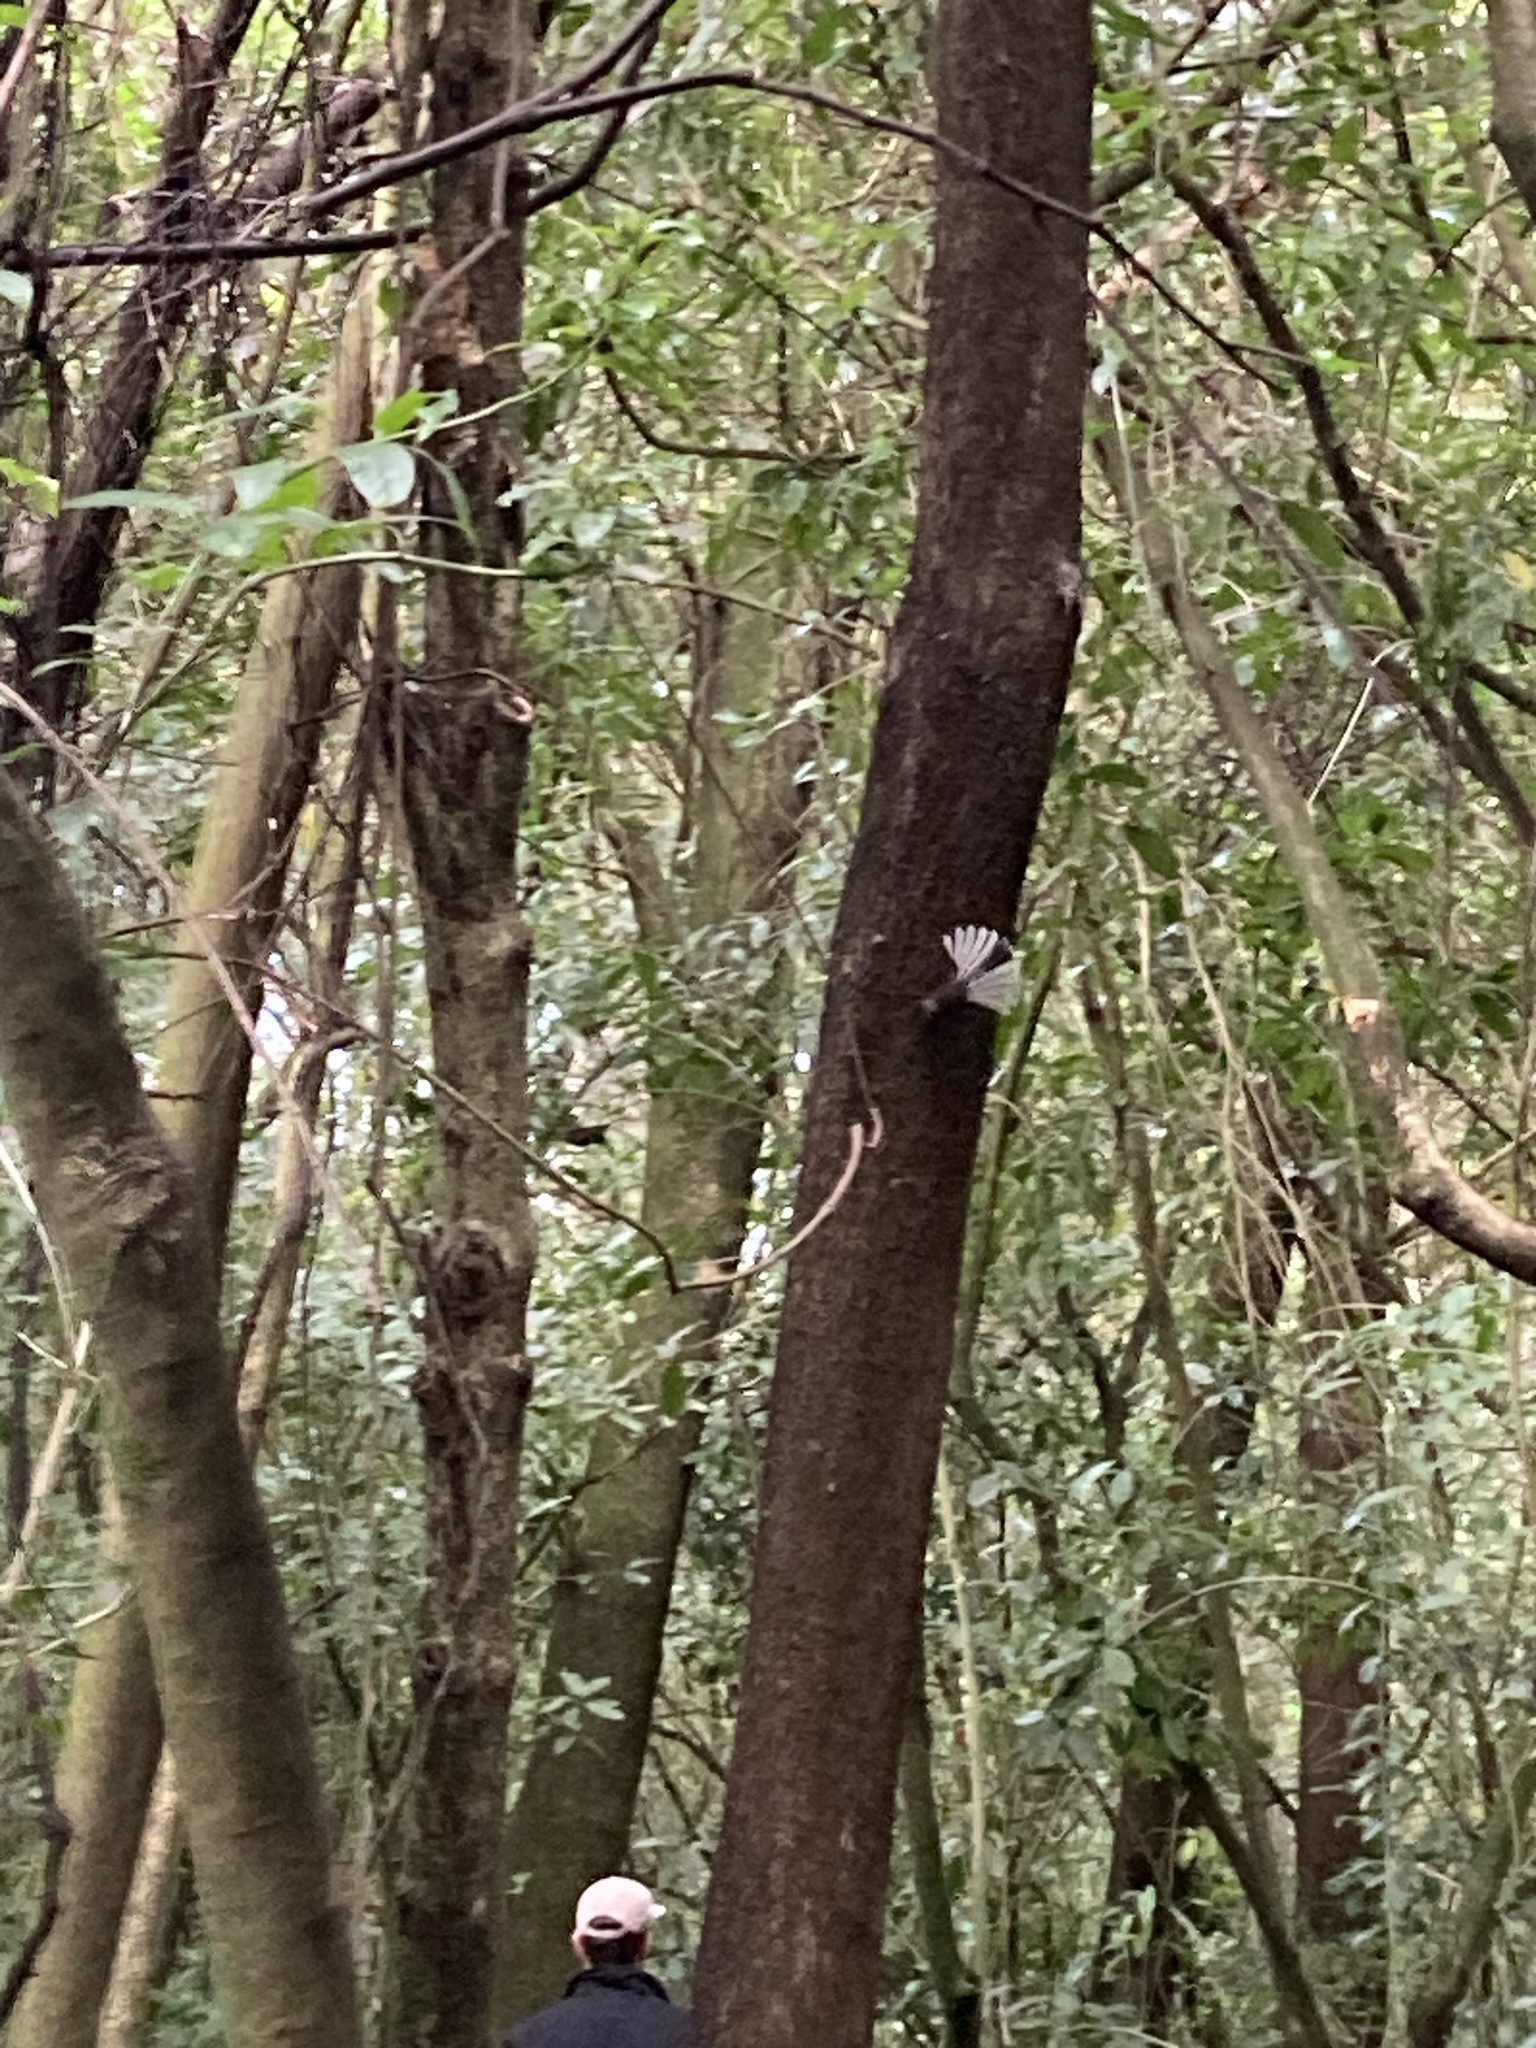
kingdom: Animalia
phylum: Chordata
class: Aves
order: Passeriformes
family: Rhipiduridae
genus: Rhipidura
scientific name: Rhipidura fuliginosa
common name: New zealand fantail
